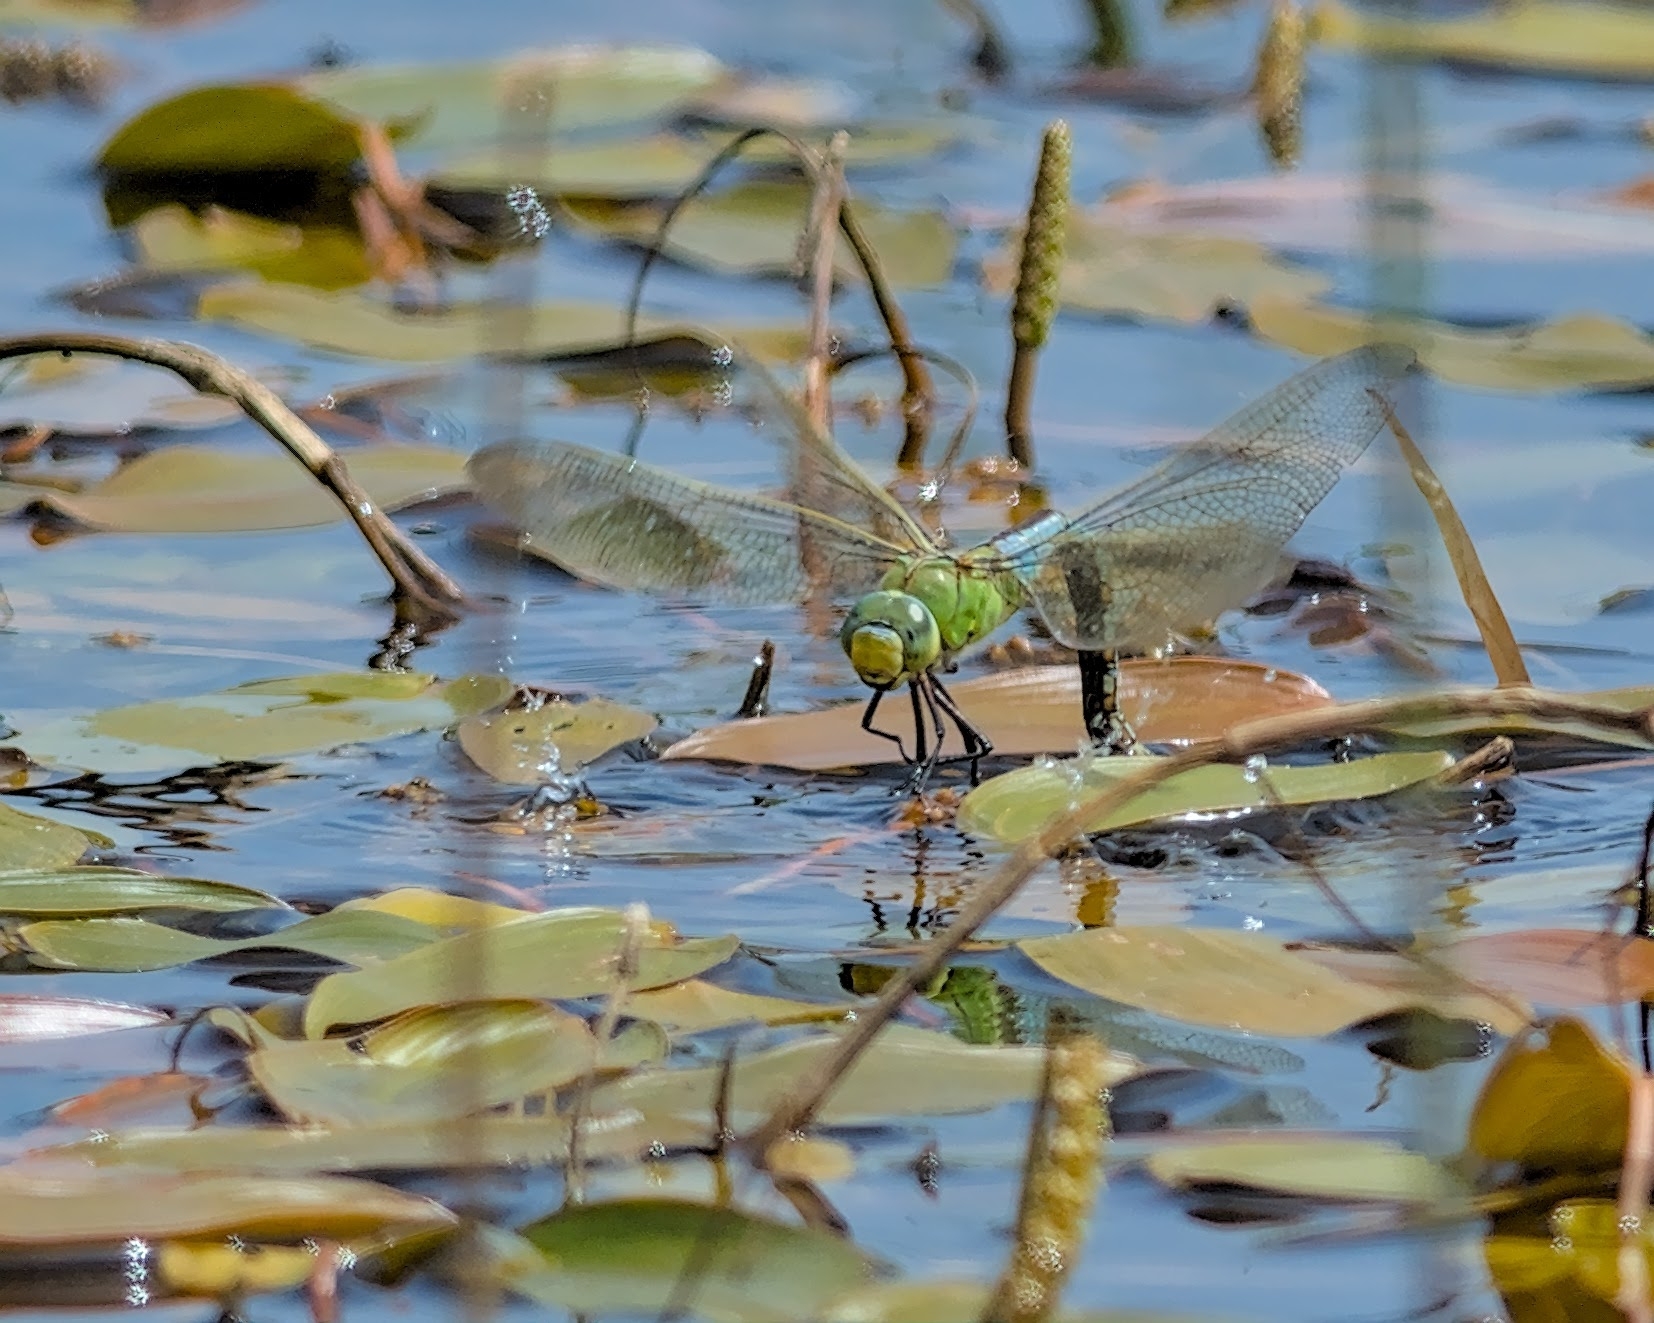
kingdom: Animalia
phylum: Arthropoda
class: Insecta
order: Odonata
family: Aeshnidae
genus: Anax
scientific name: Anax imperator
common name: Emperor dragonfly
